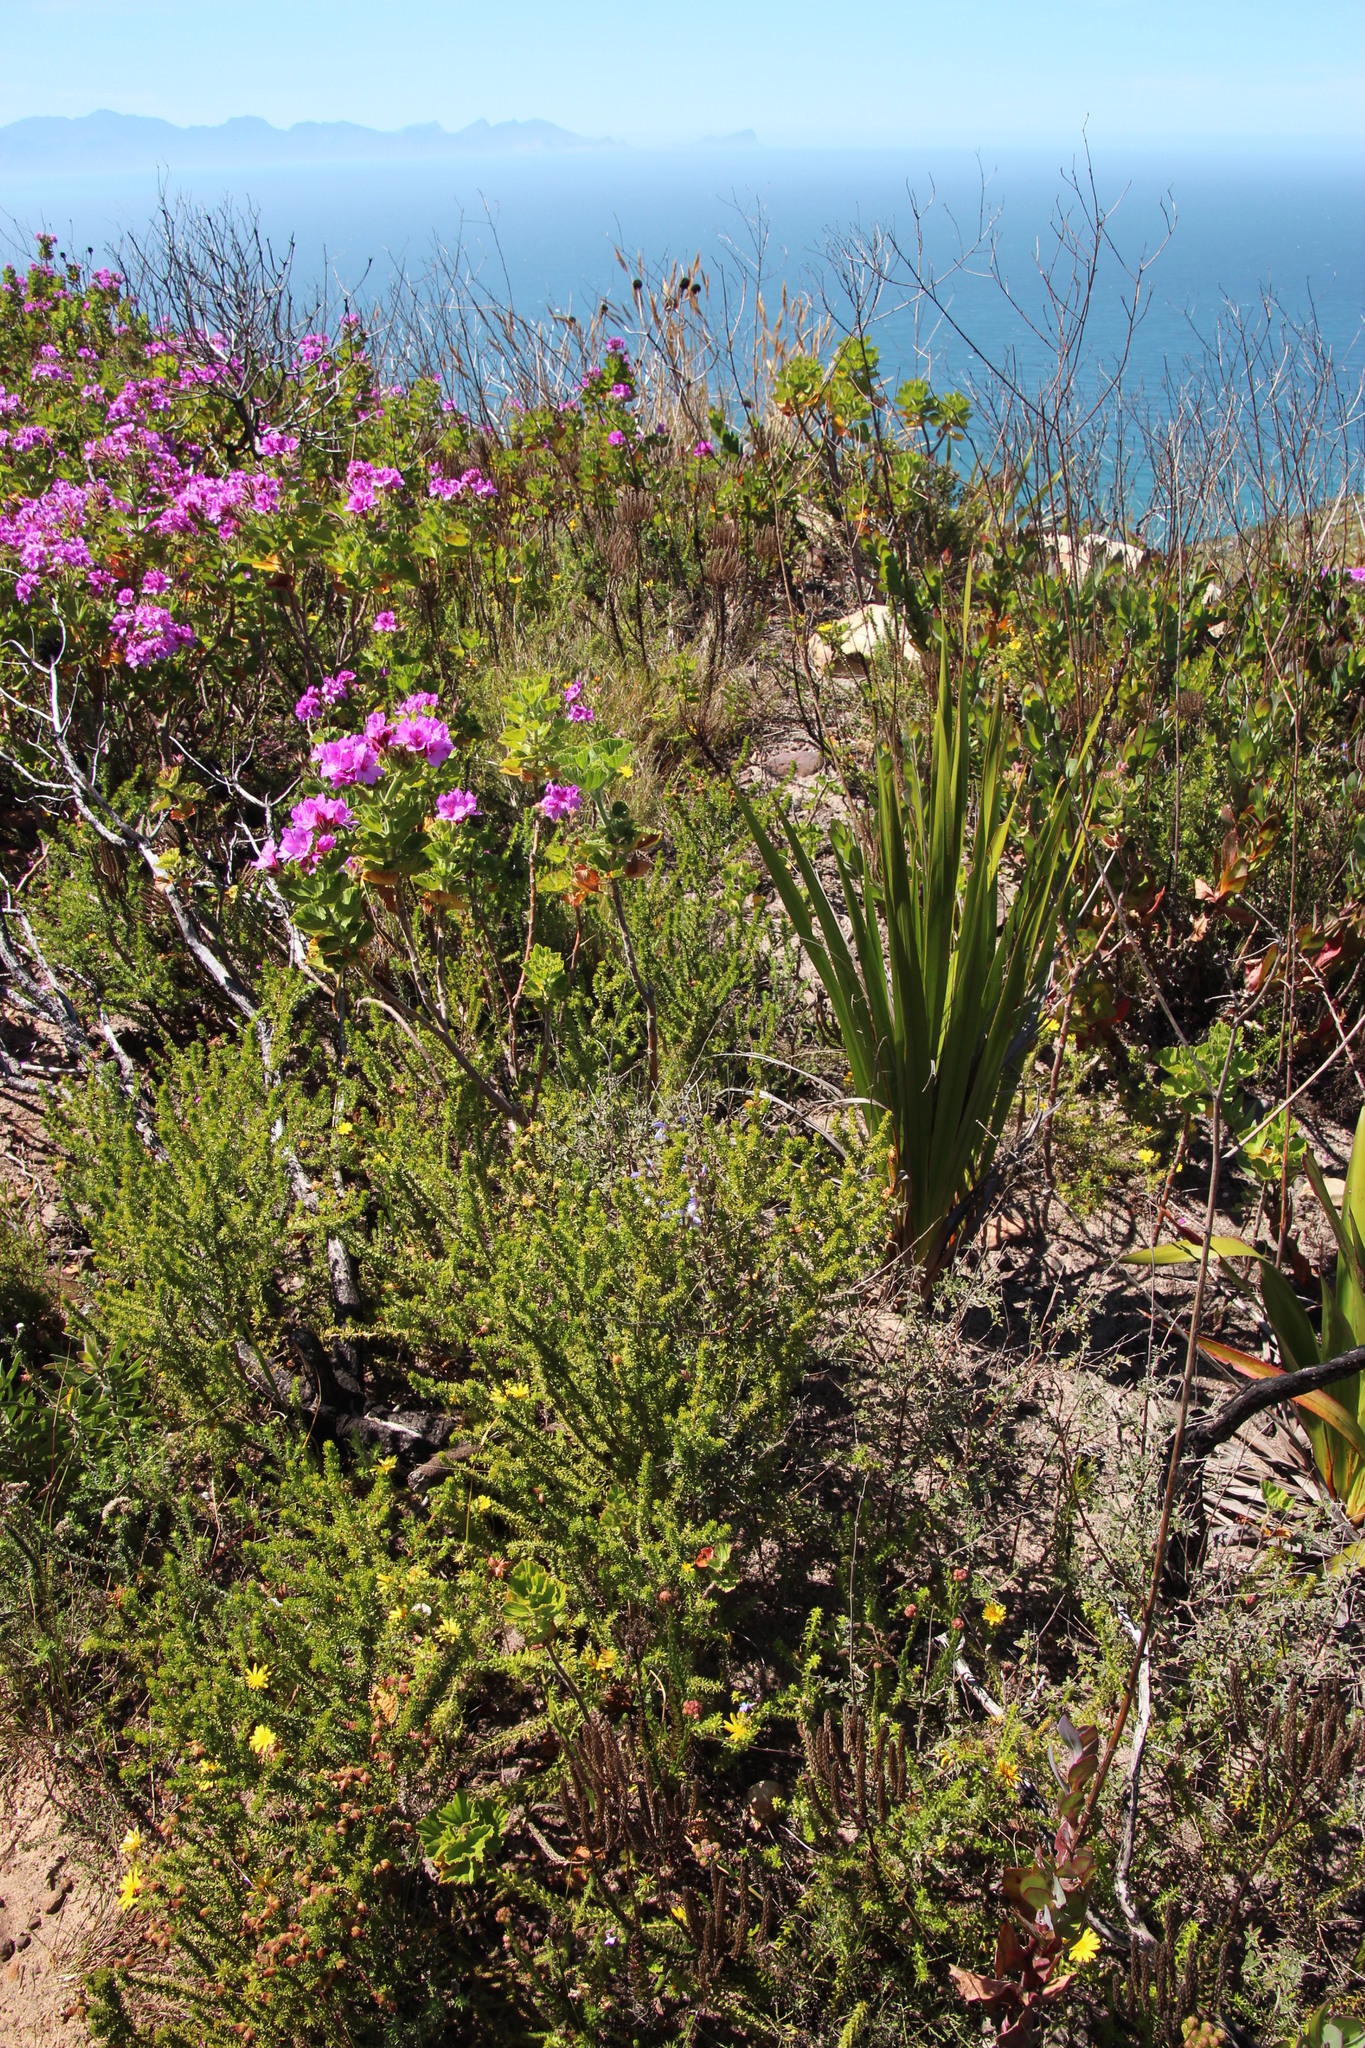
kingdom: Plantae
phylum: Tracheophyta
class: Magnoliopsida
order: Lamiales
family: Lamiaceae
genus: Salvia
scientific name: Salvia africana
